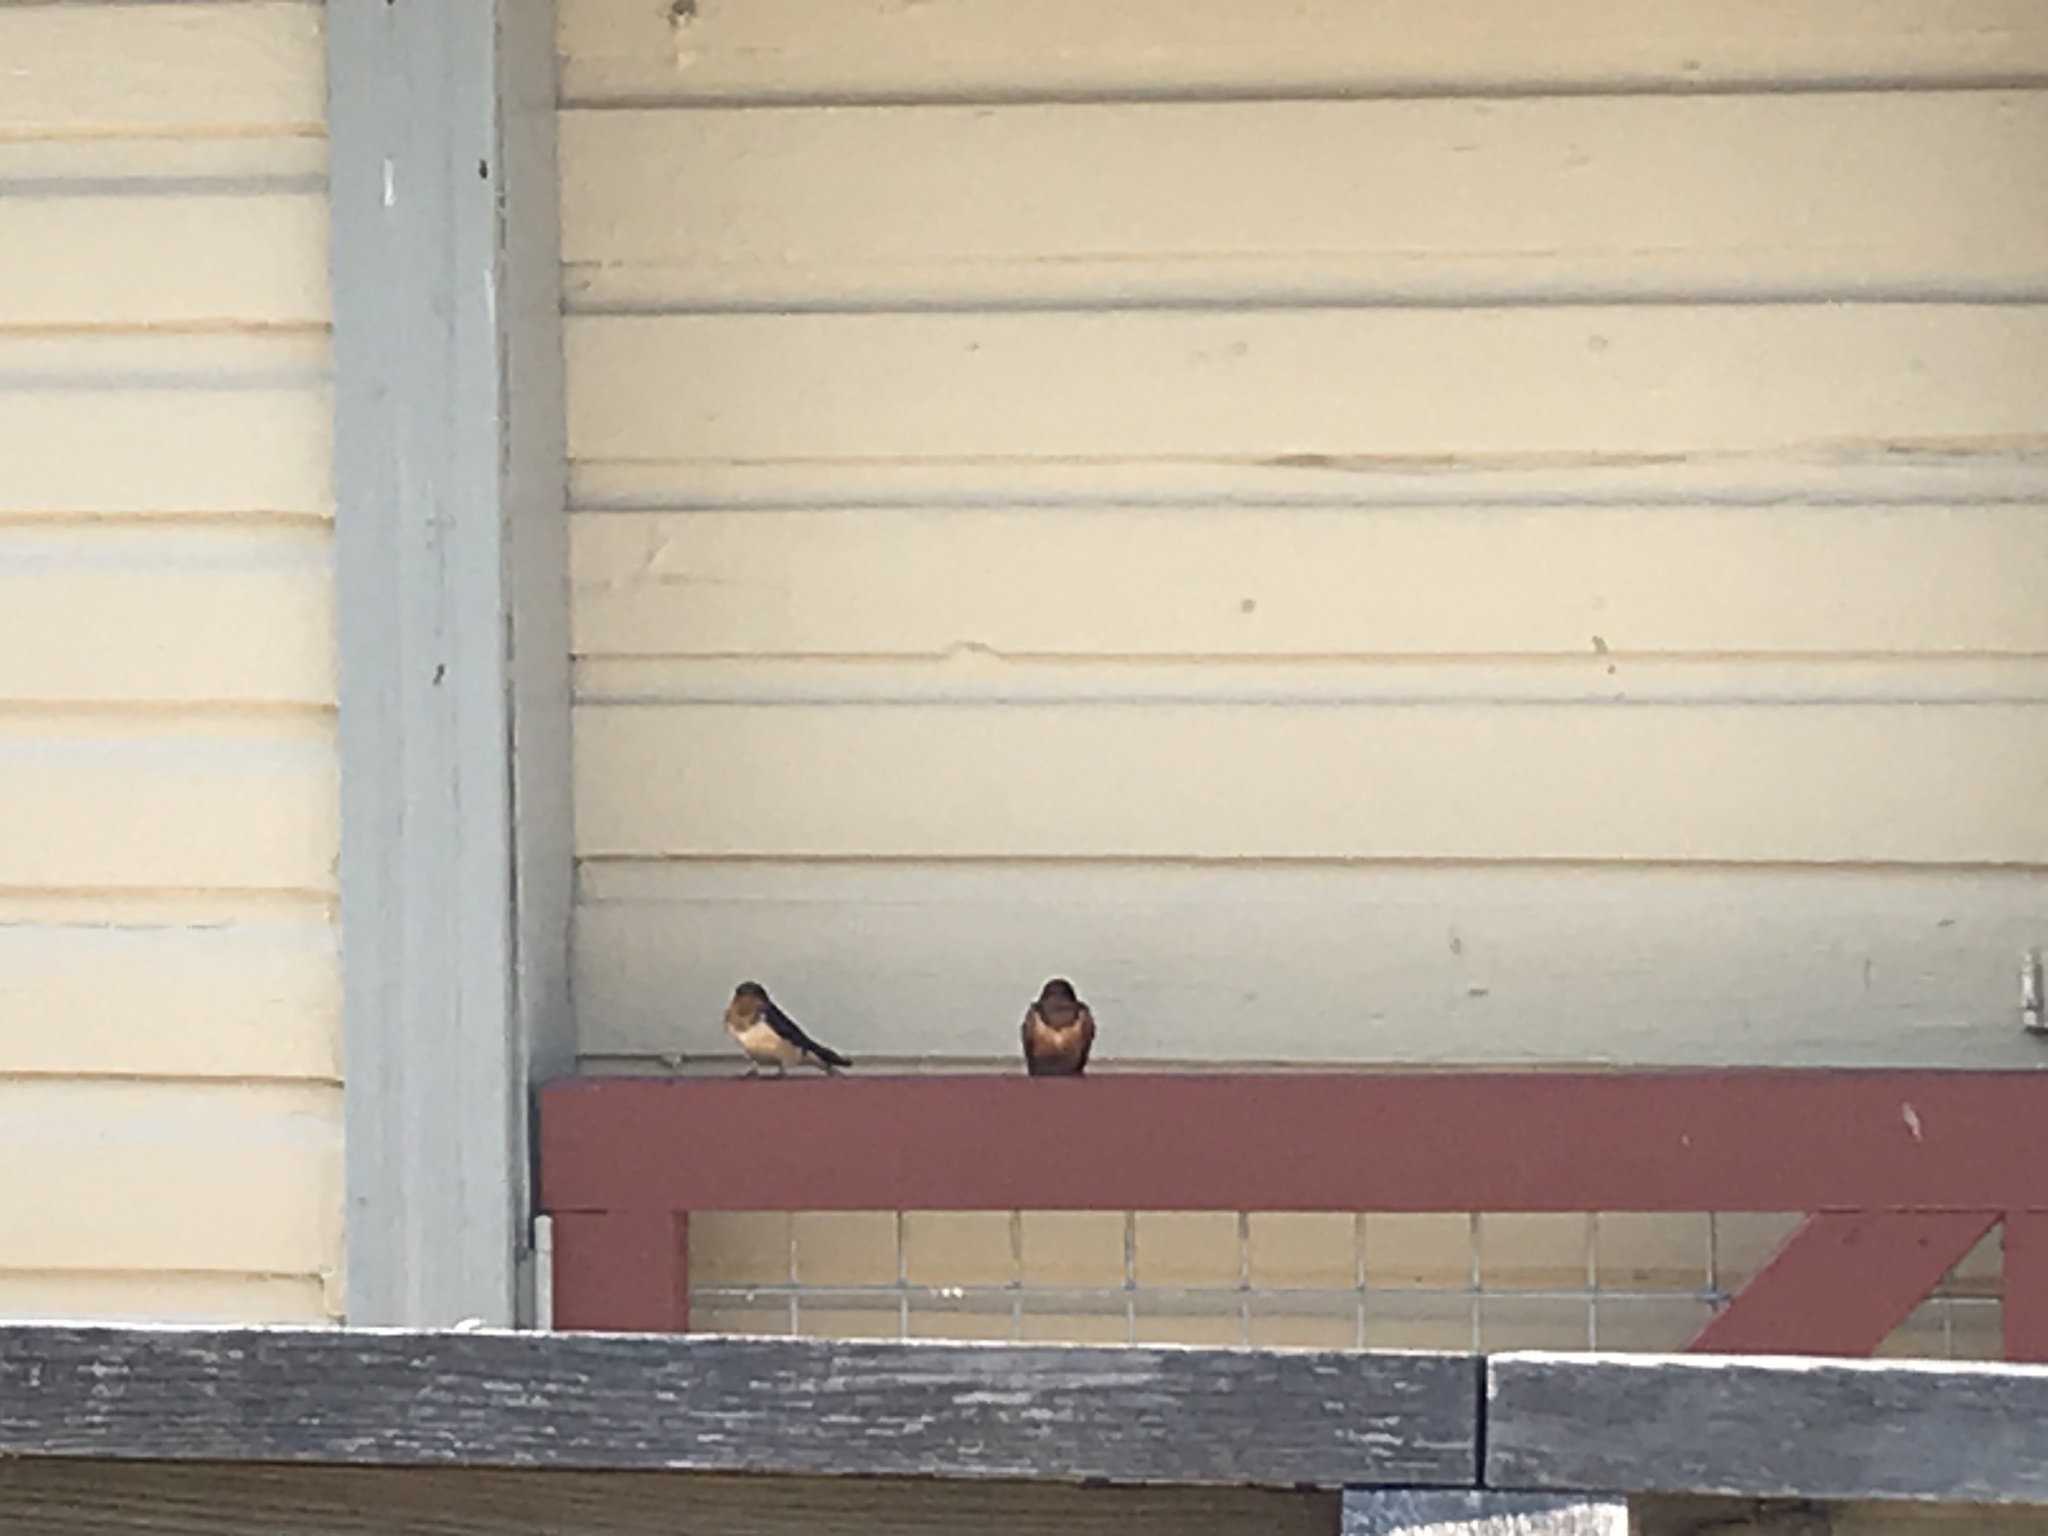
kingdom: Animalia
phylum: Chordata
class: Aves
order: Passeriformes
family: Hirundinidae
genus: Hirundo
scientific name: Hirundo rustica
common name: Barn swallow
